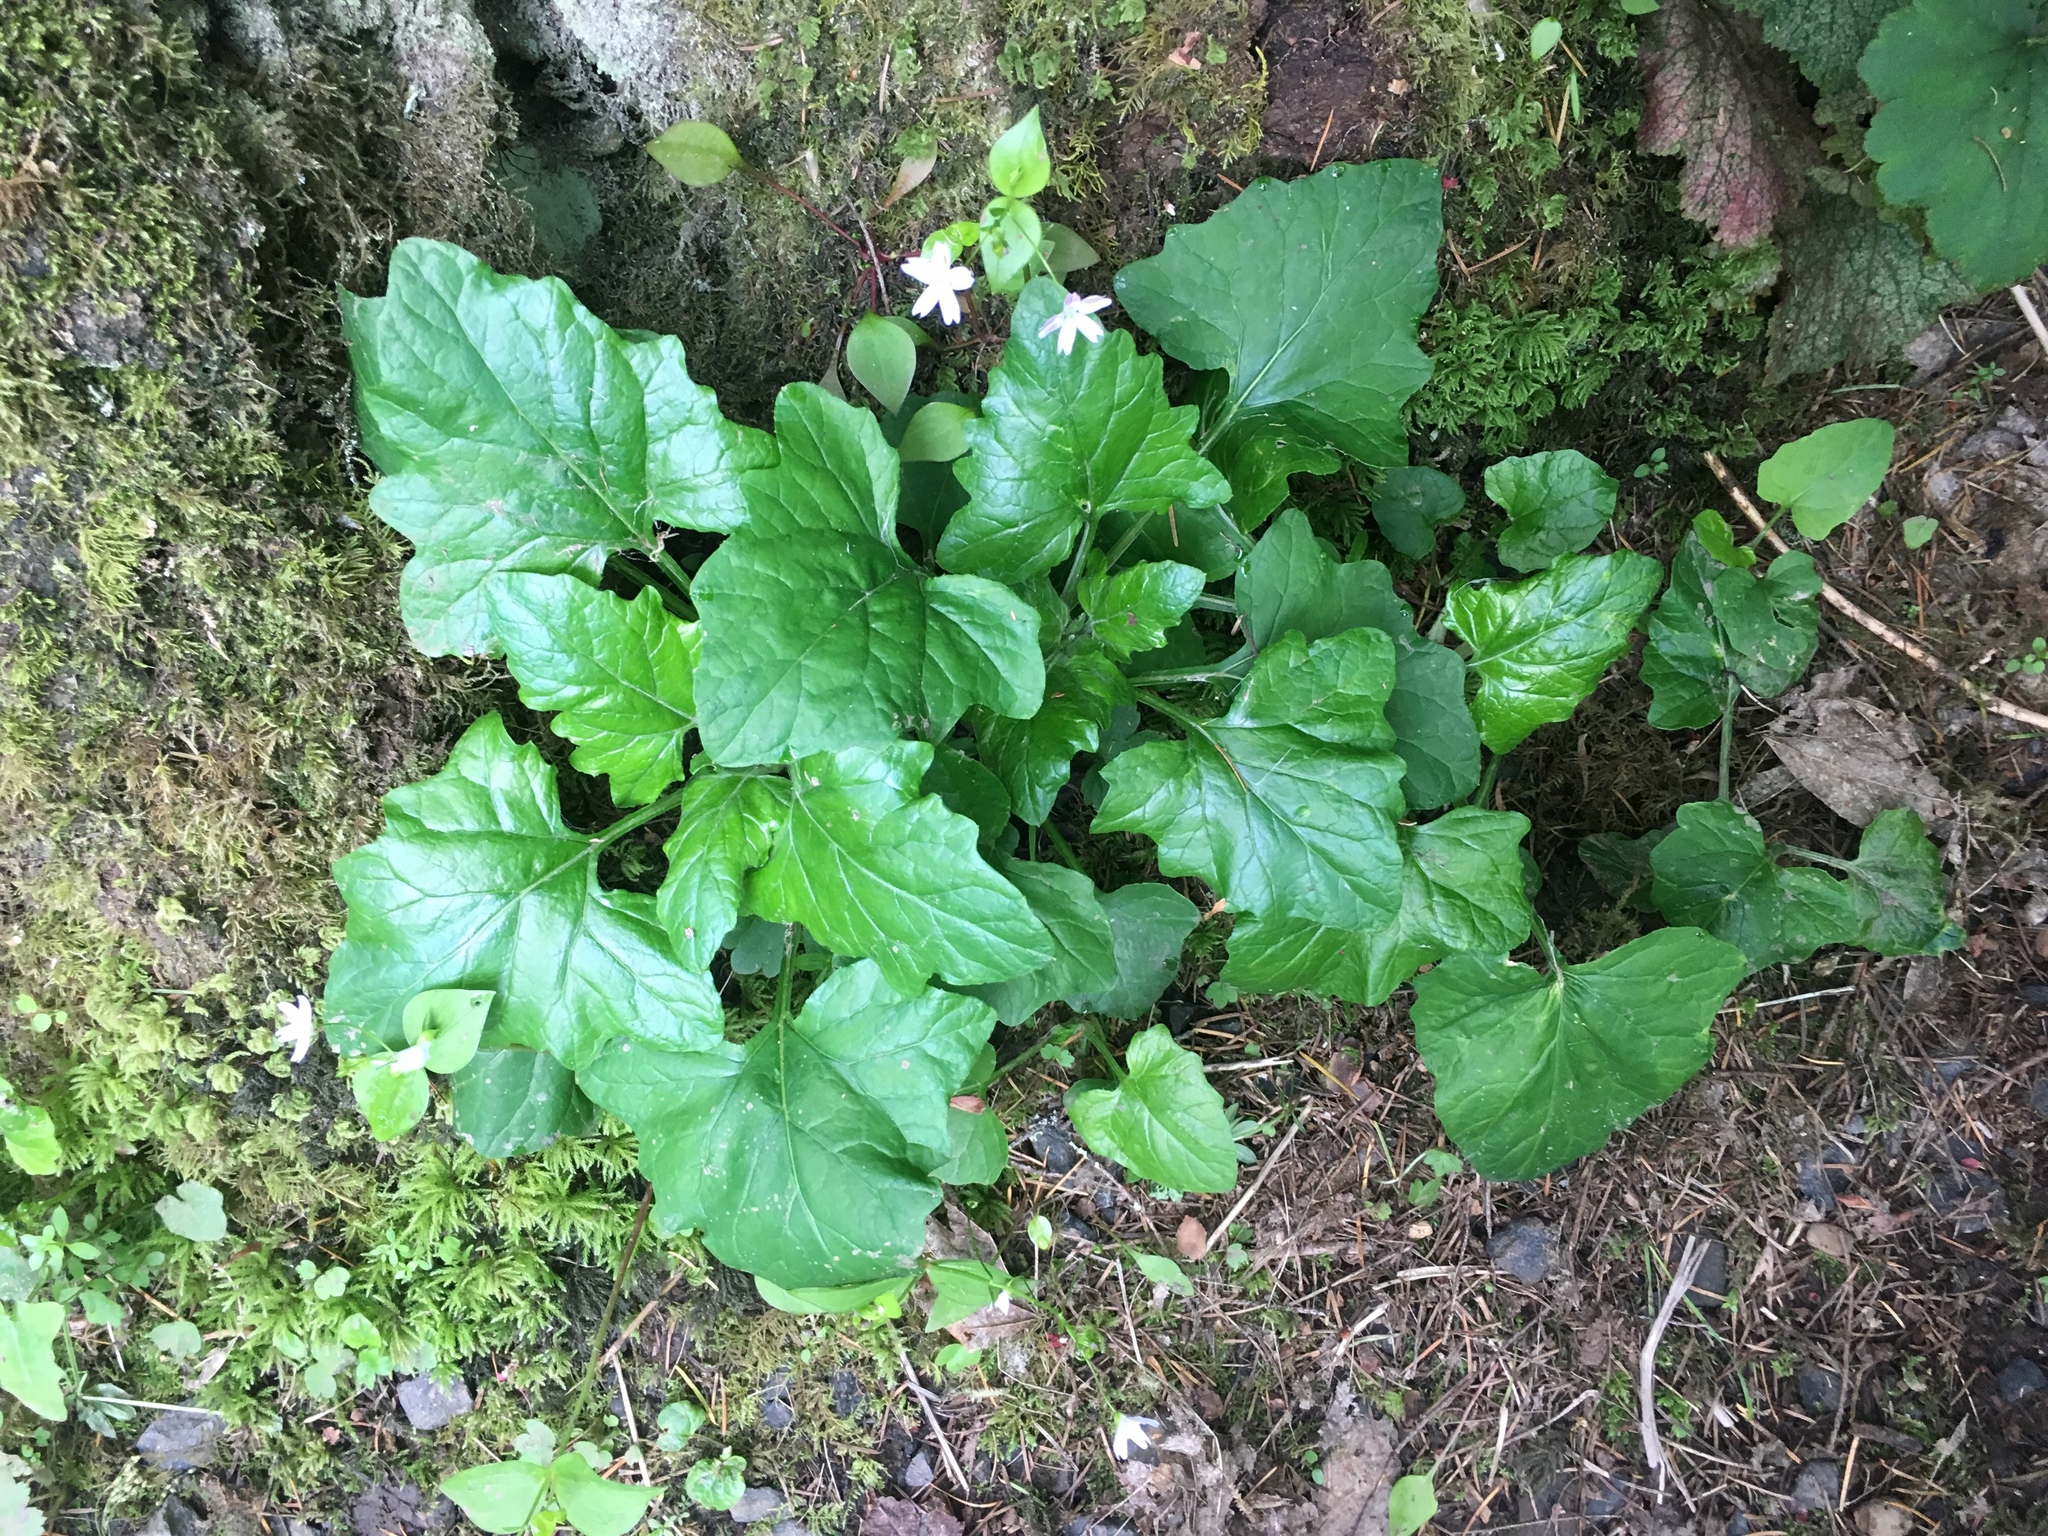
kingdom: Plantae
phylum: Tracheophyta
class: Magnoliopsida
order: Asterales
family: Asteraceae
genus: Adenocaulon
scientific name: Adenocaulon bicolor
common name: Trailplant
